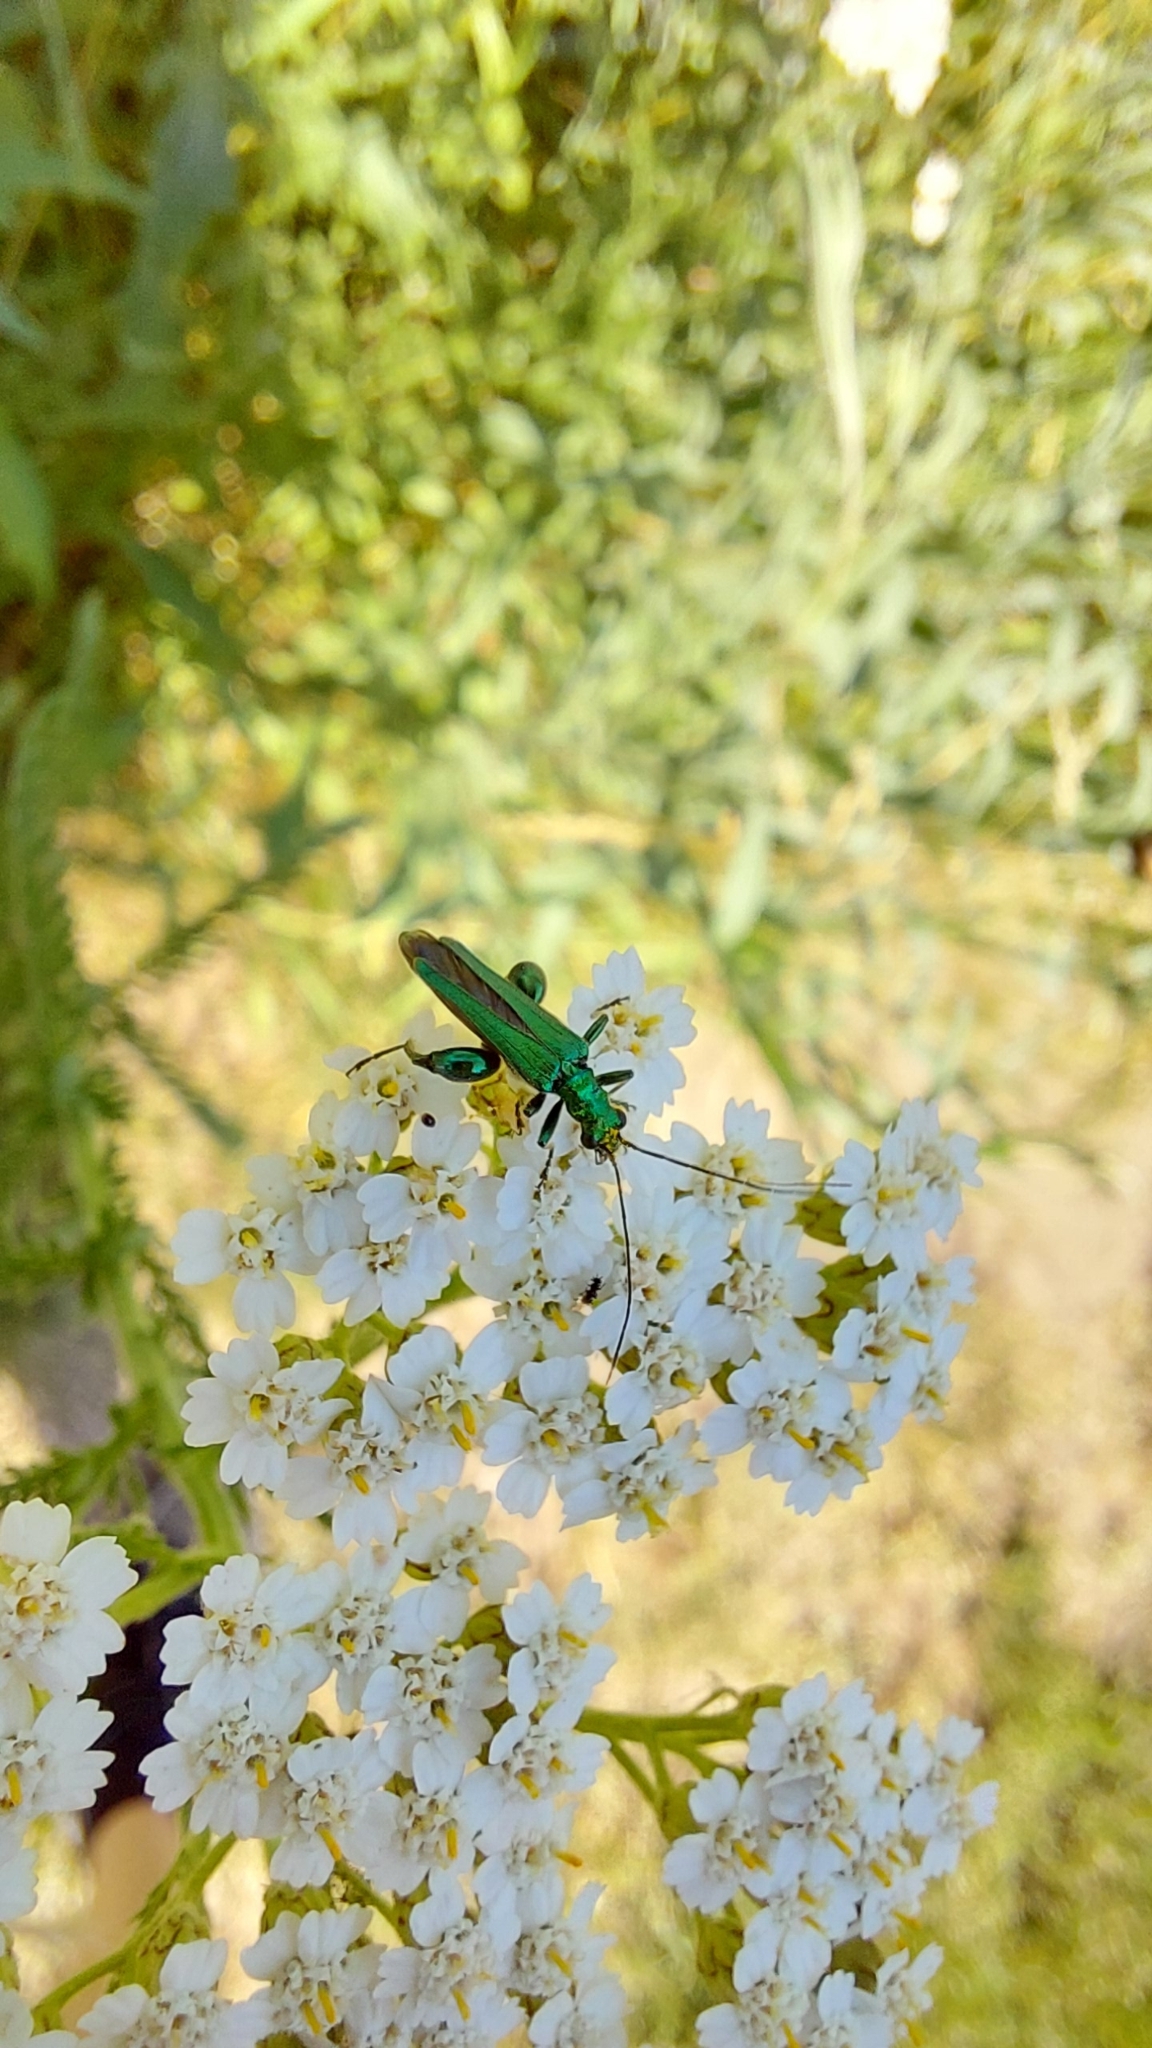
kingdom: Animalia
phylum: Arthropoda
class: Insecta
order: Coleoptera
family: Oedemeridae
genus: Oedemera
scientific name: Oedemera nobilis
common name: Swollen-thighed beetle
